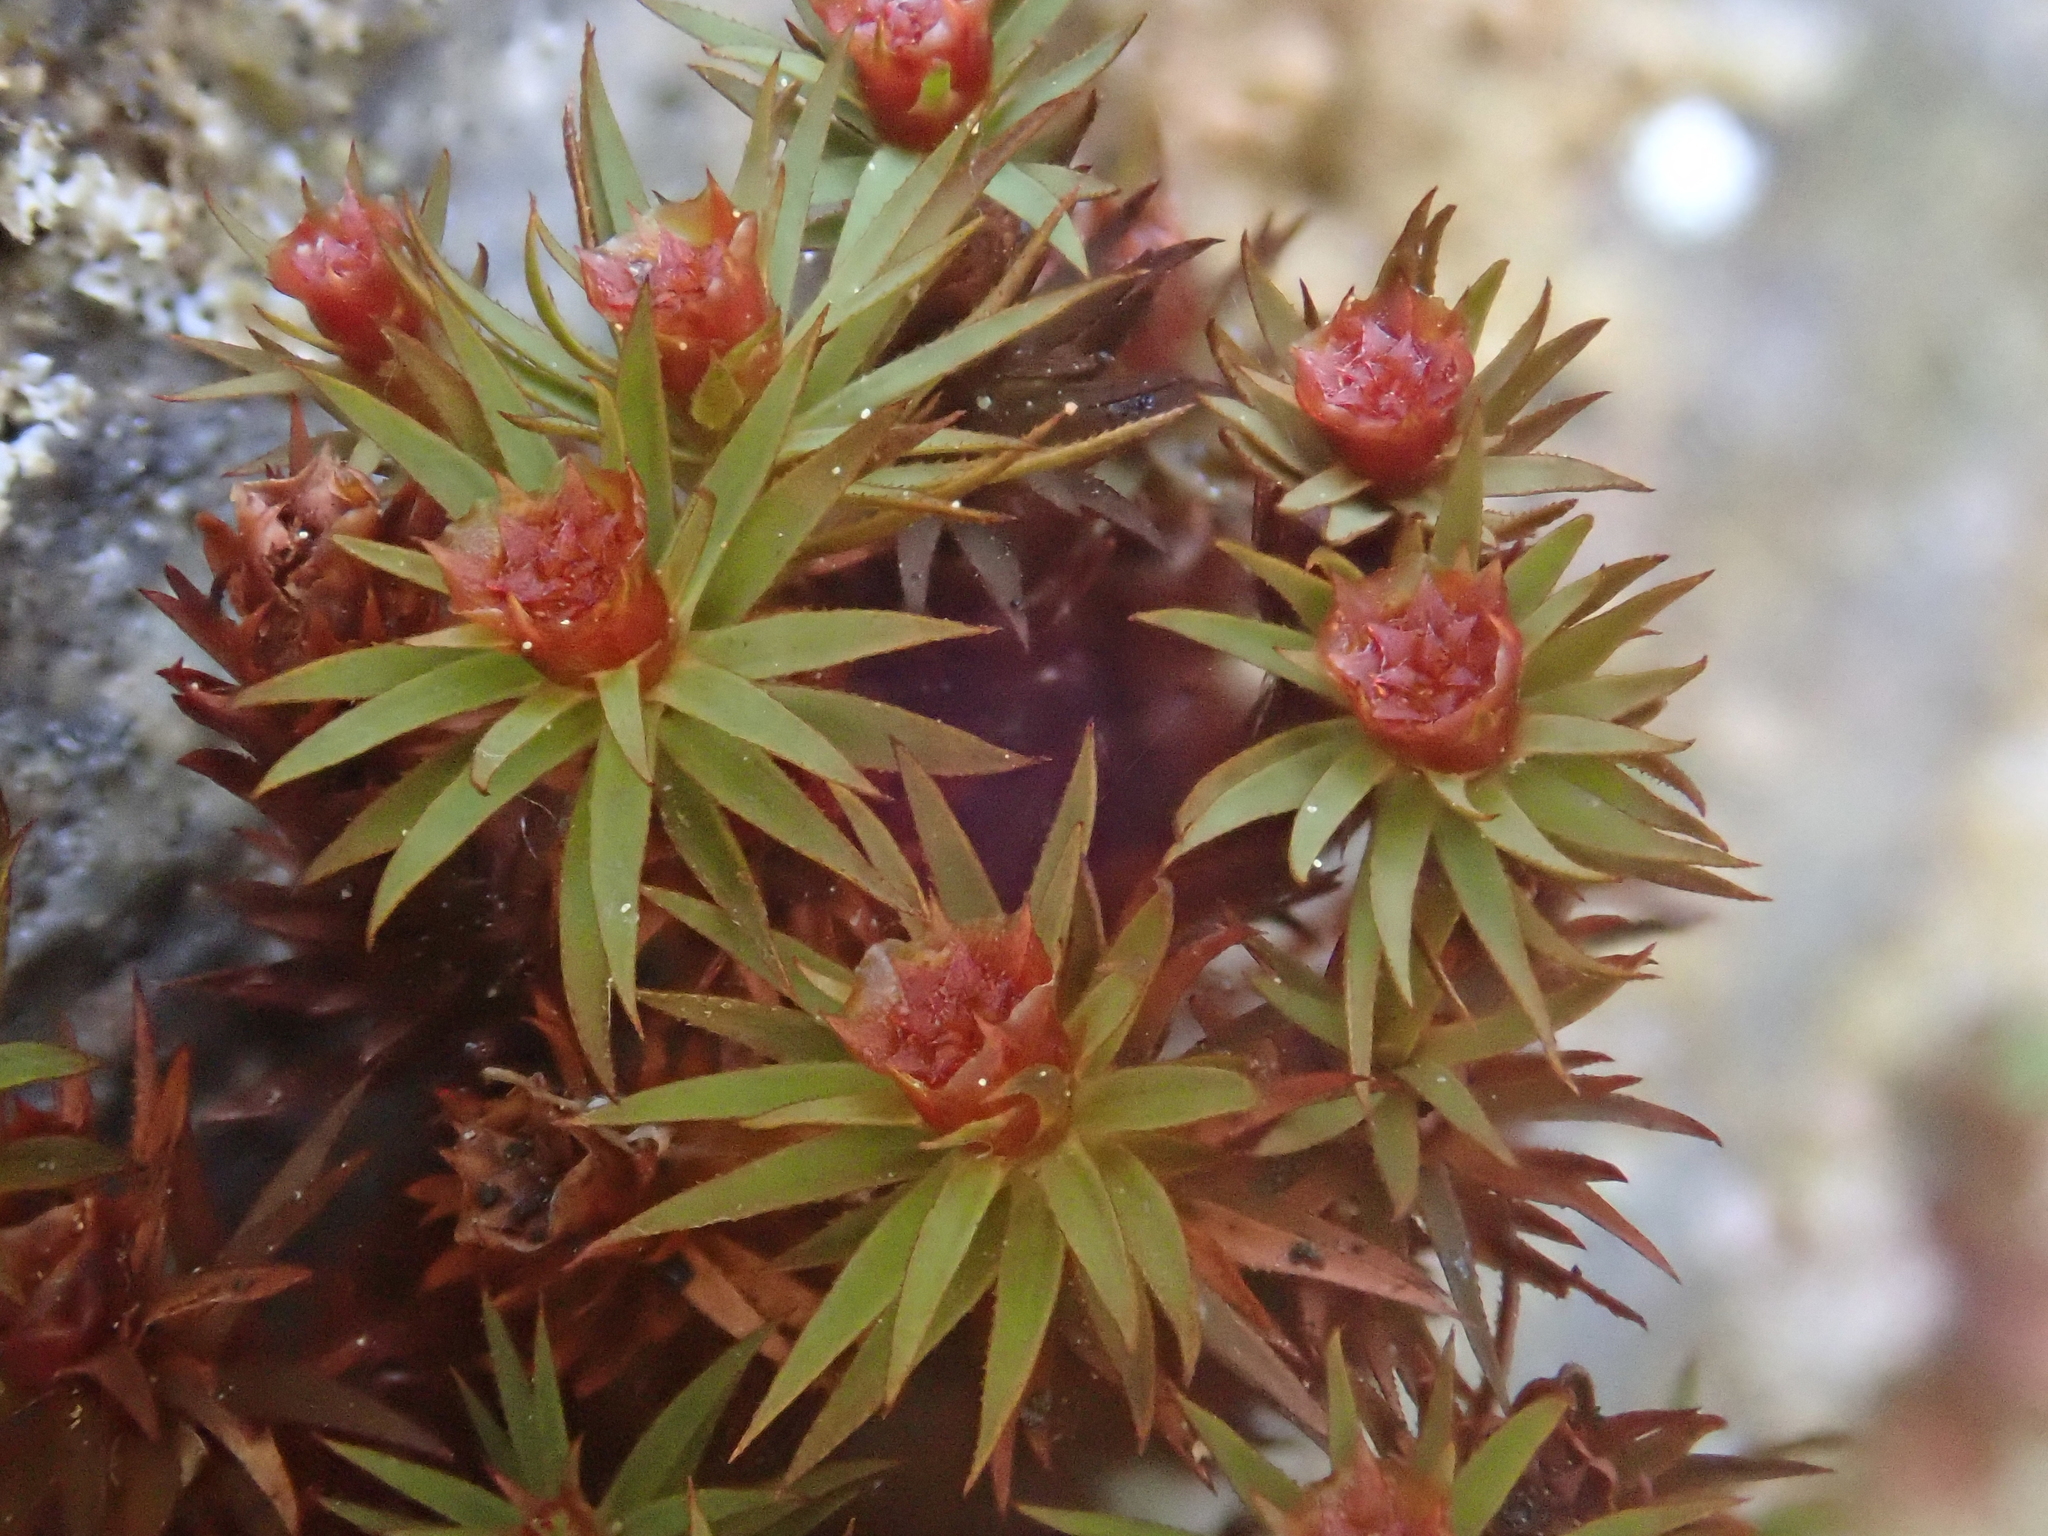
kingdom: Plantae
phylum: Bryophyta
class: Polytrichopsida
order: Polytrichales
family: Polytrichaceae
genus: Pogonatum
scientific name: Pogonatum urnigerum
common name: Urn hair moss
